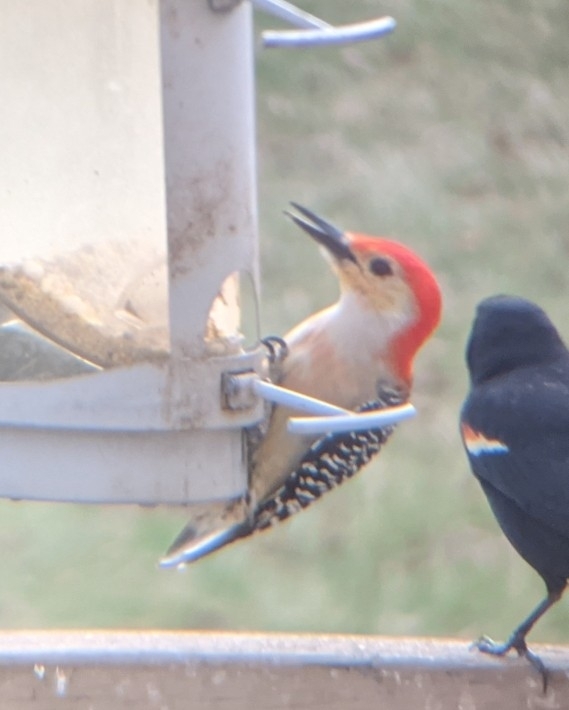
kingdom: Animalia
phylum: Chordata
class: Aves
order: Piciformes
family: Picidae
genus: Melanerpes
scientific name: Melanerpes carolinus
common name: Red-bellied woodpecker
